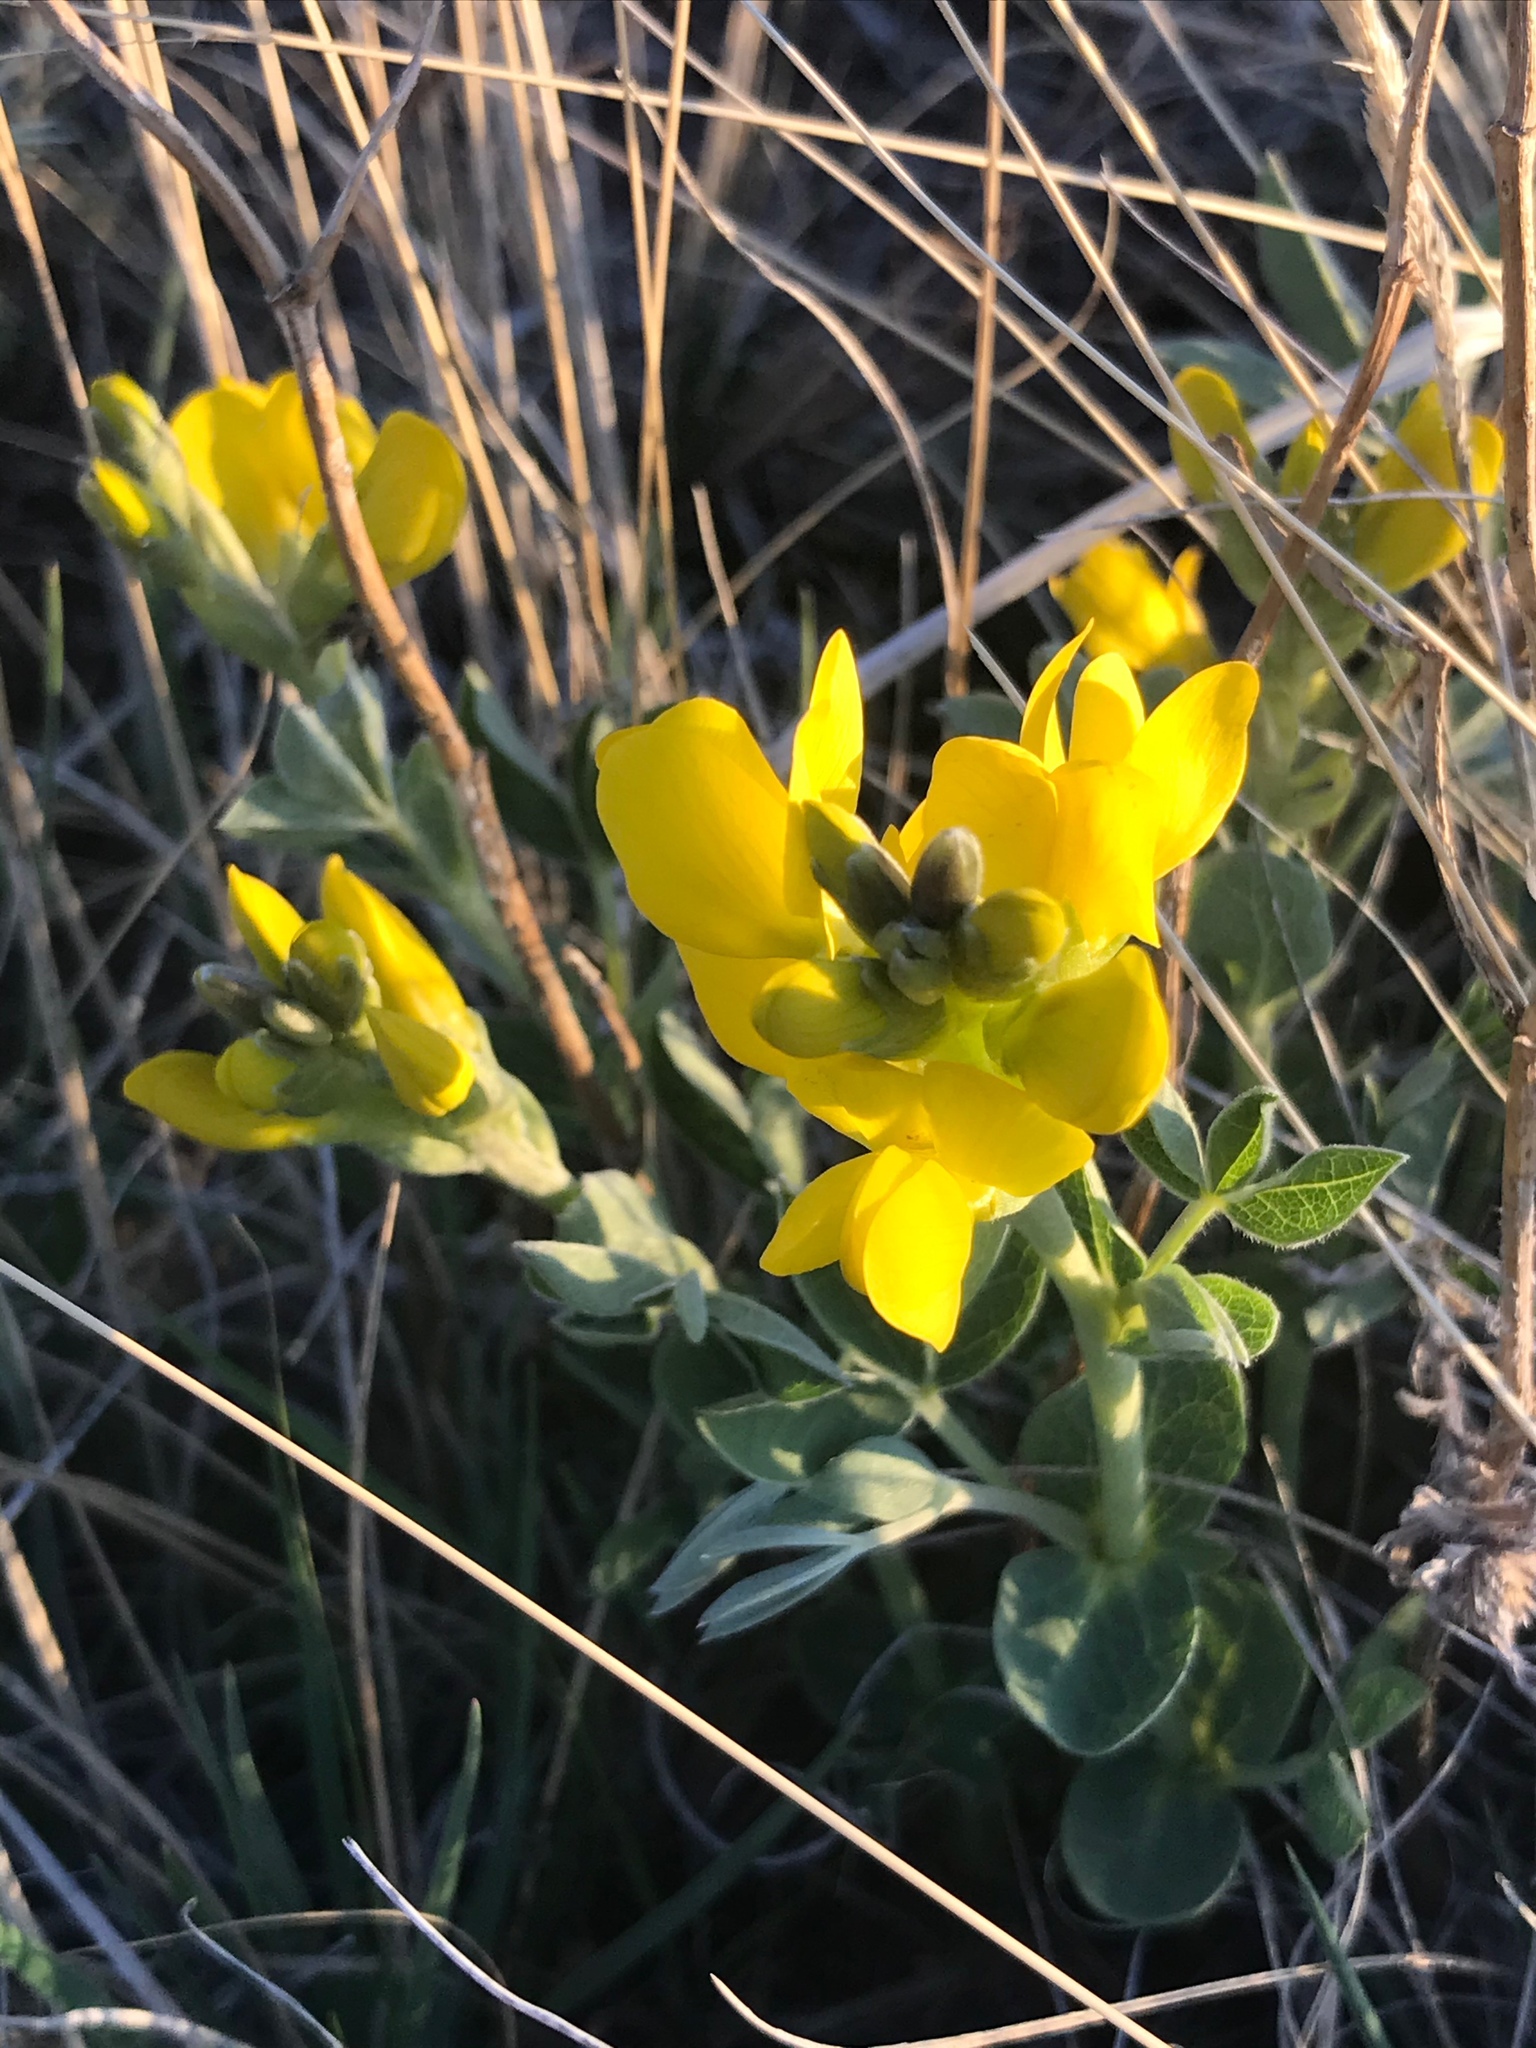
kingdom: Plantae
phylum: Tracheophyta
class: Magnoliopsida
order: Fabales
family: Fabaceae
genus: Thermopsis
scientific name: Thermopsis rhombifolia
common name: Circle-pod-pea
